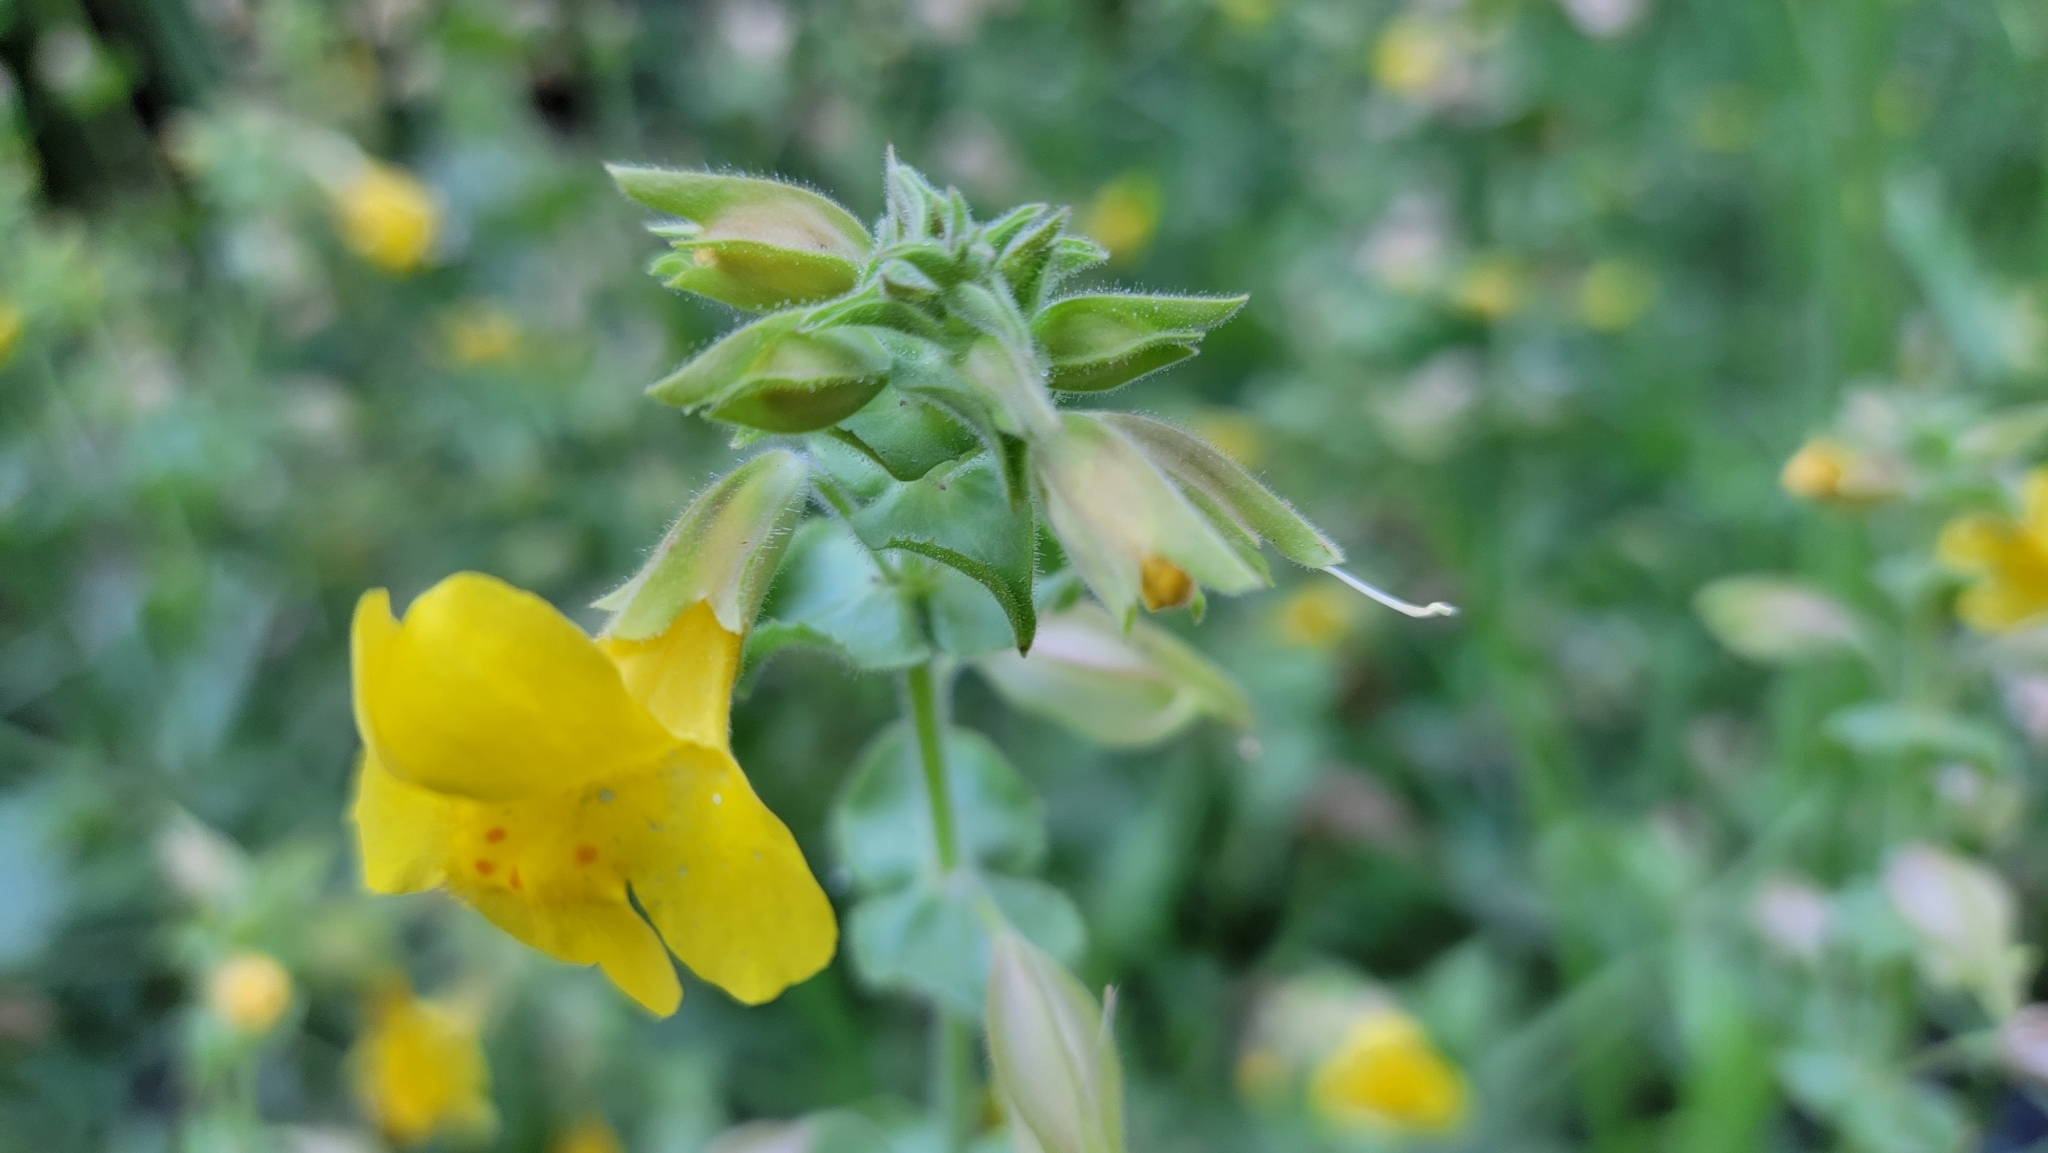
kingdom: Plantae
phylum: Tracheophyta
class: Magnoliopsida
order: Lamiales
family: Phrymaceae
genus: Erythranthe
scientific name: Erythranthe guttata
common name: Monkeyflower
